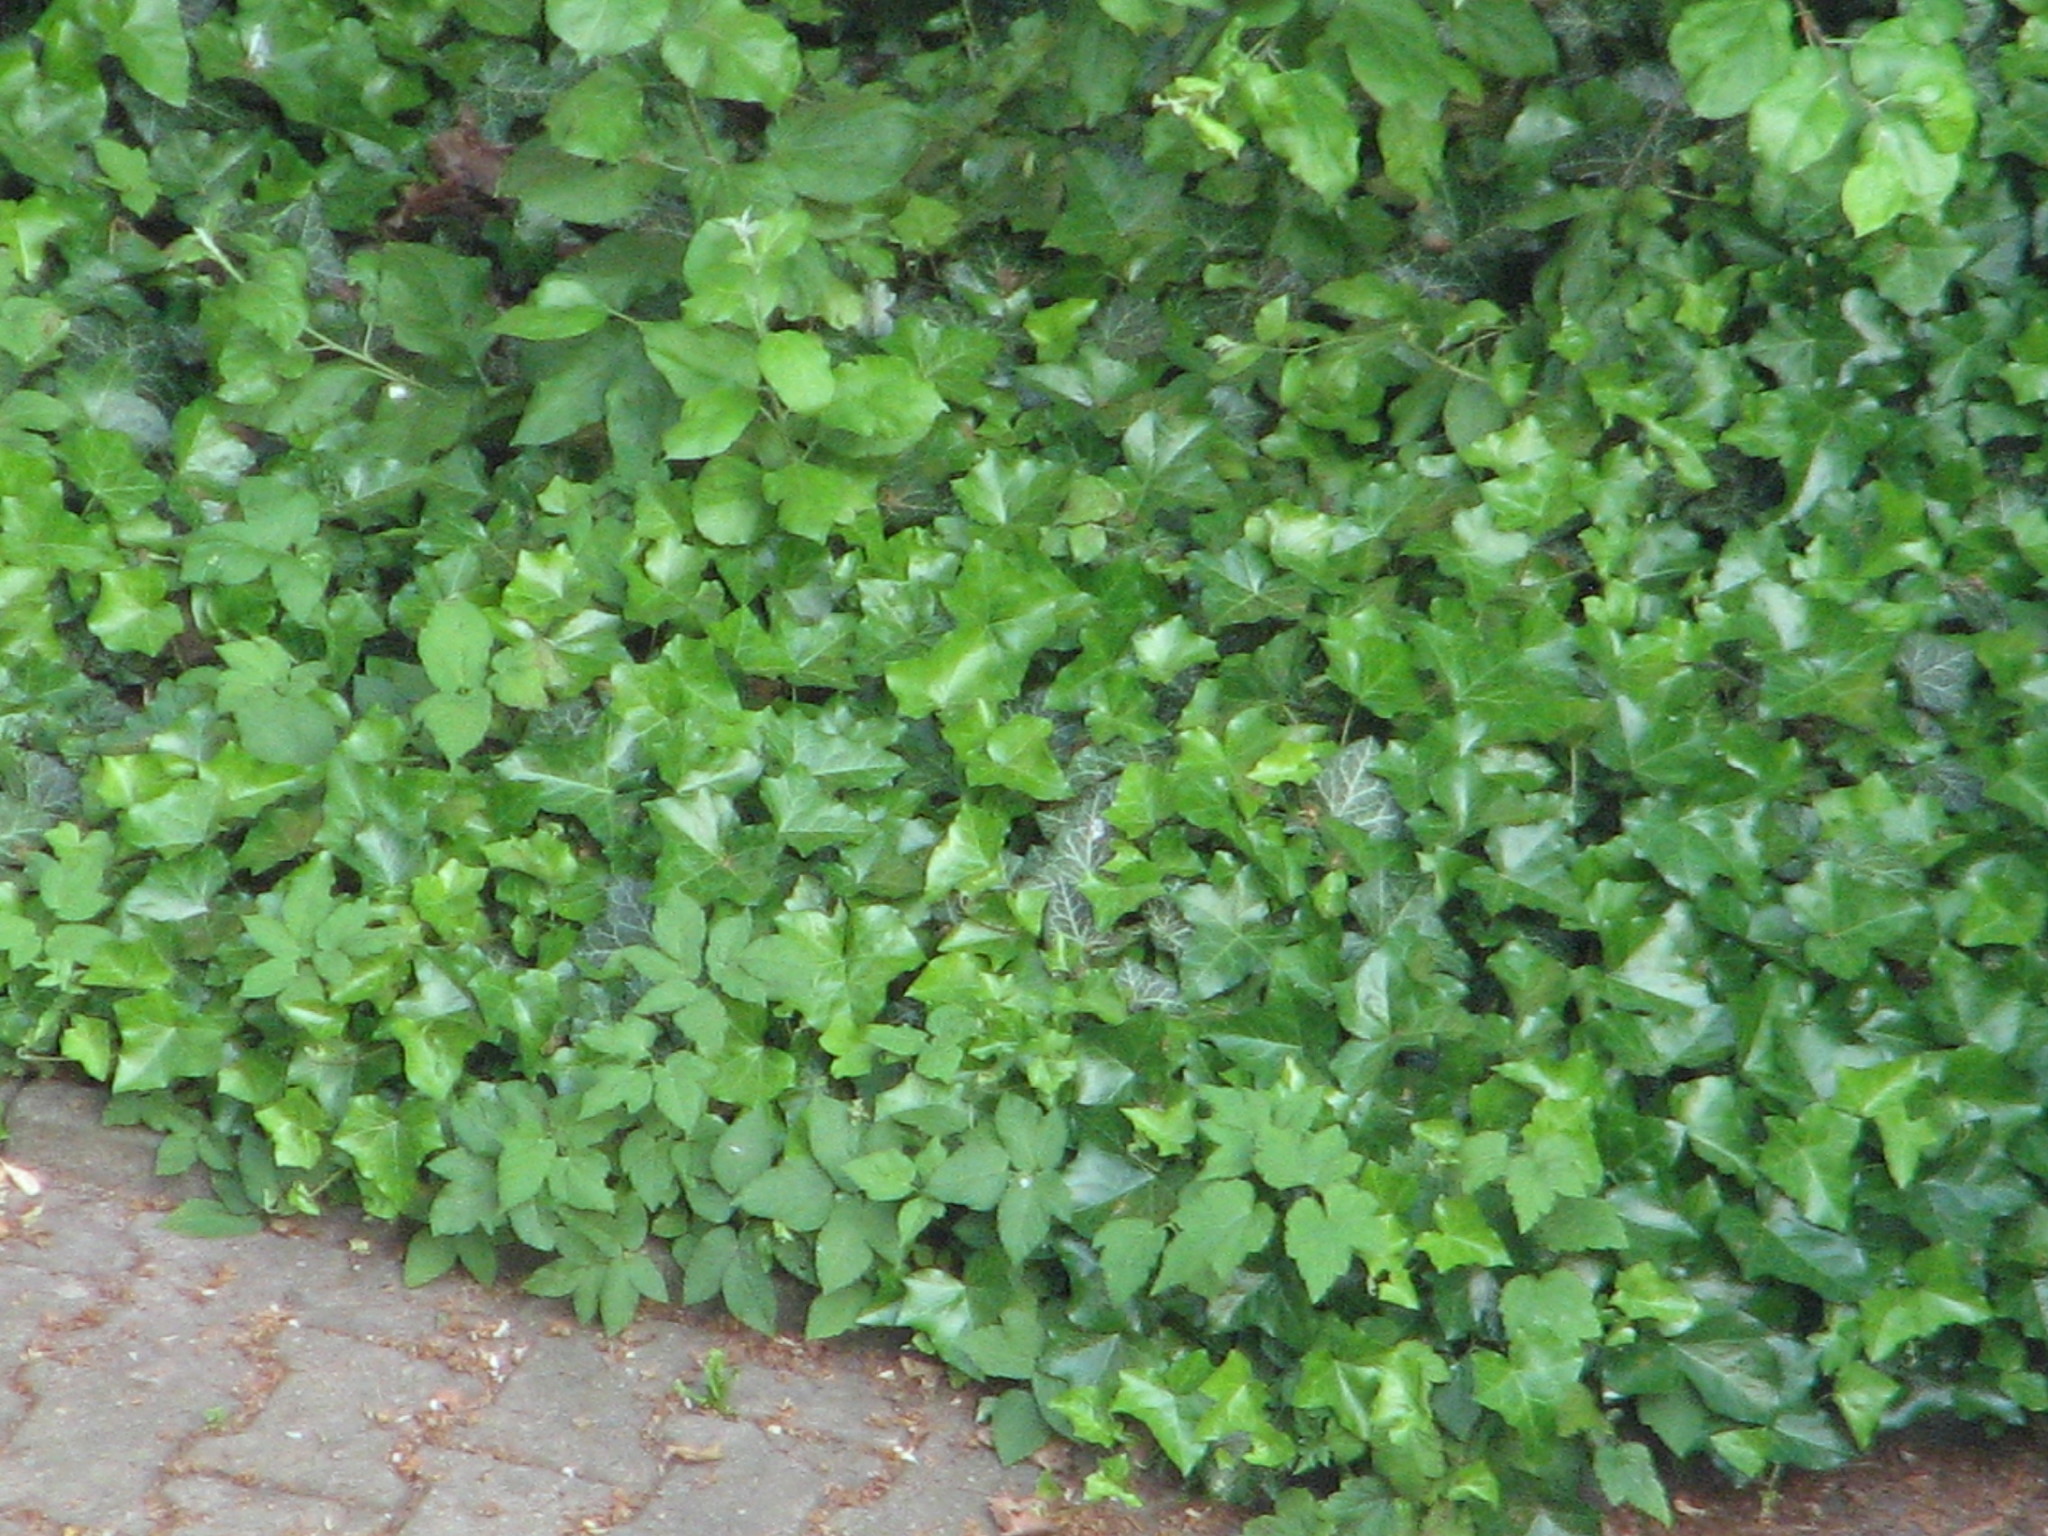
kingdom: Plantae
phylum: Tracheophyta
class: Magnoliopsida
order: Apiales
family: Araliaceae
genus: Hedera
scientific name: Hedera helix
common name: Ivy
